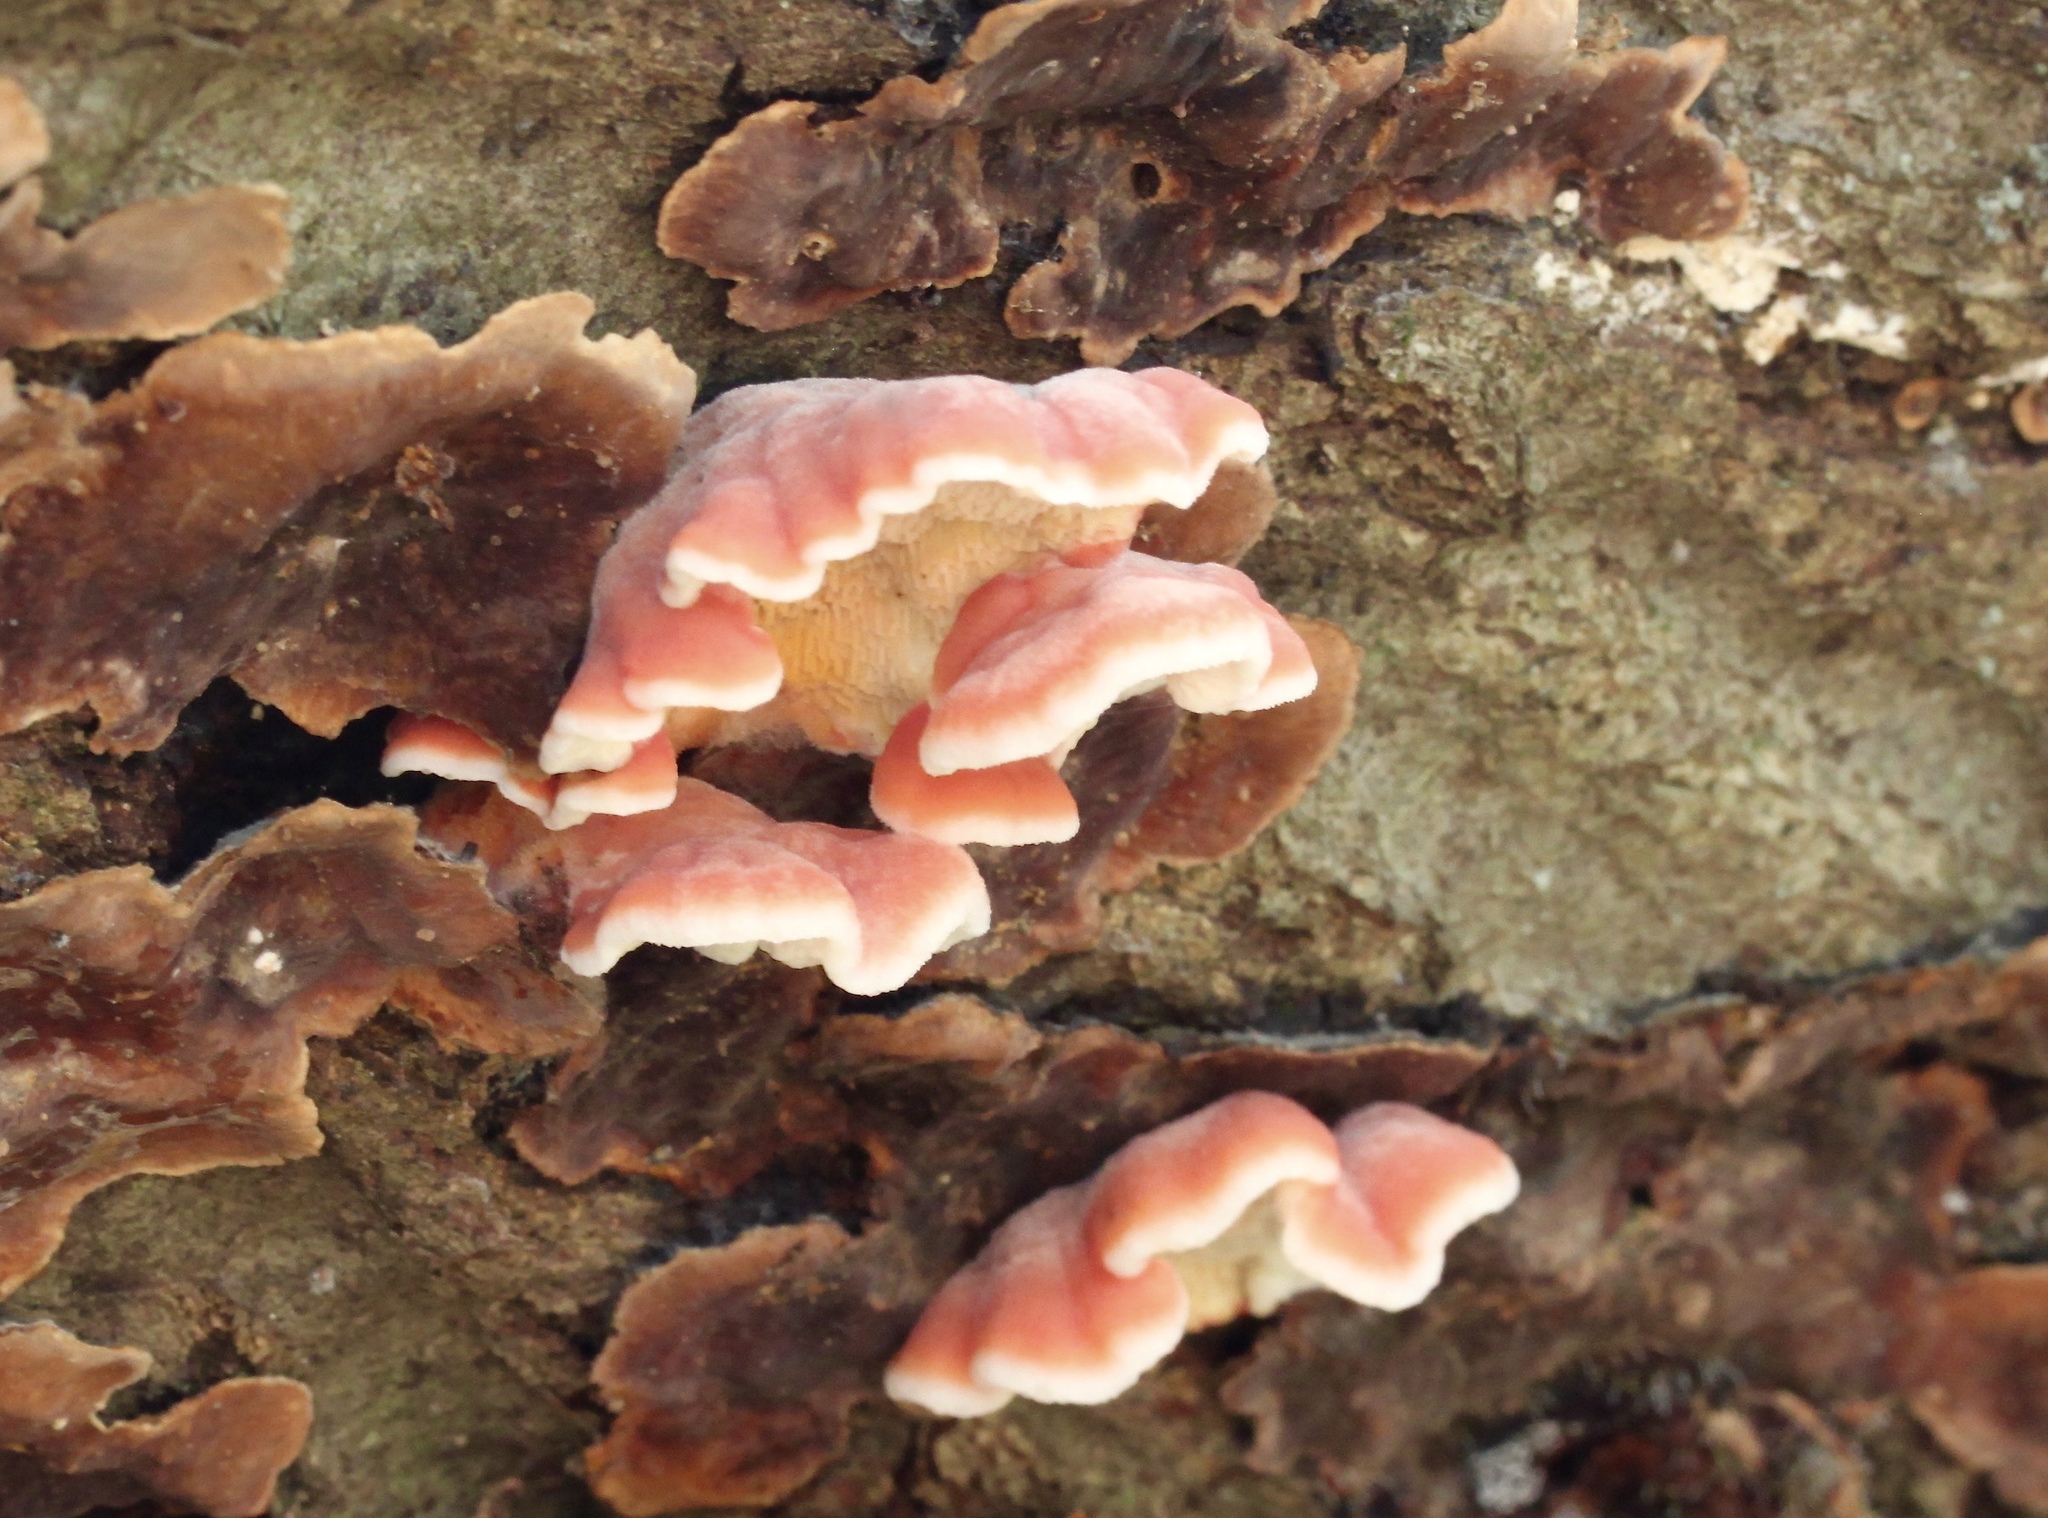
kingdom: Fungi
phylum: Basidiomycota
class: Agaricomycetes
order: Polyporales
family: Irpicaceae
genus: Byssomerulius
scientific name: Byssomerulius incarnatus
